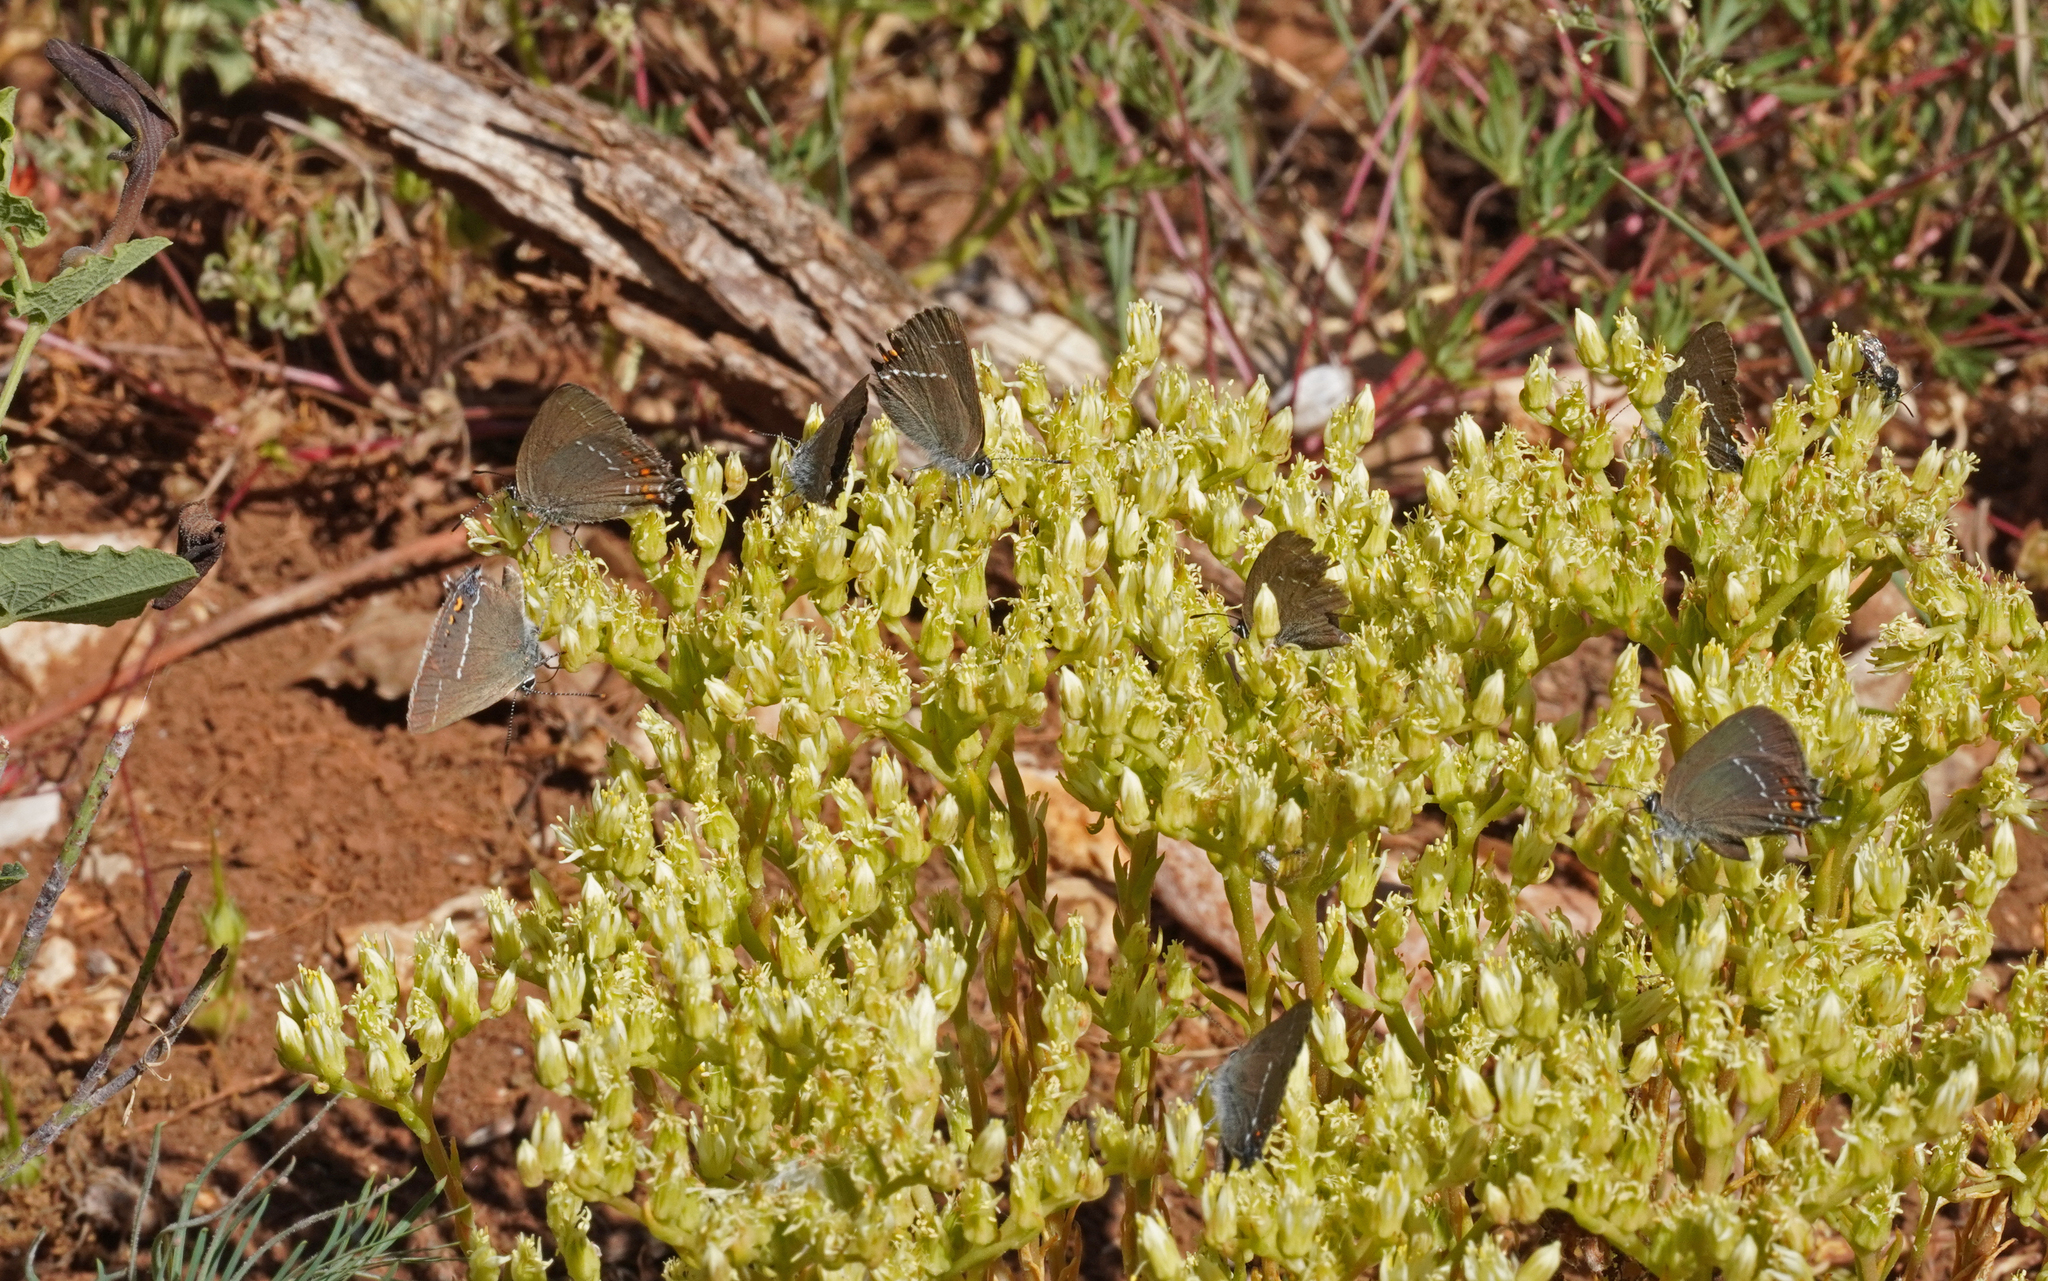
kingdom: Animalia
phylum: Arthropoda
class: Insecta
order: Lepidoptera
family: Lycaenidae
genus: Nordmannia
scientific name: Nordmannia ilicis
